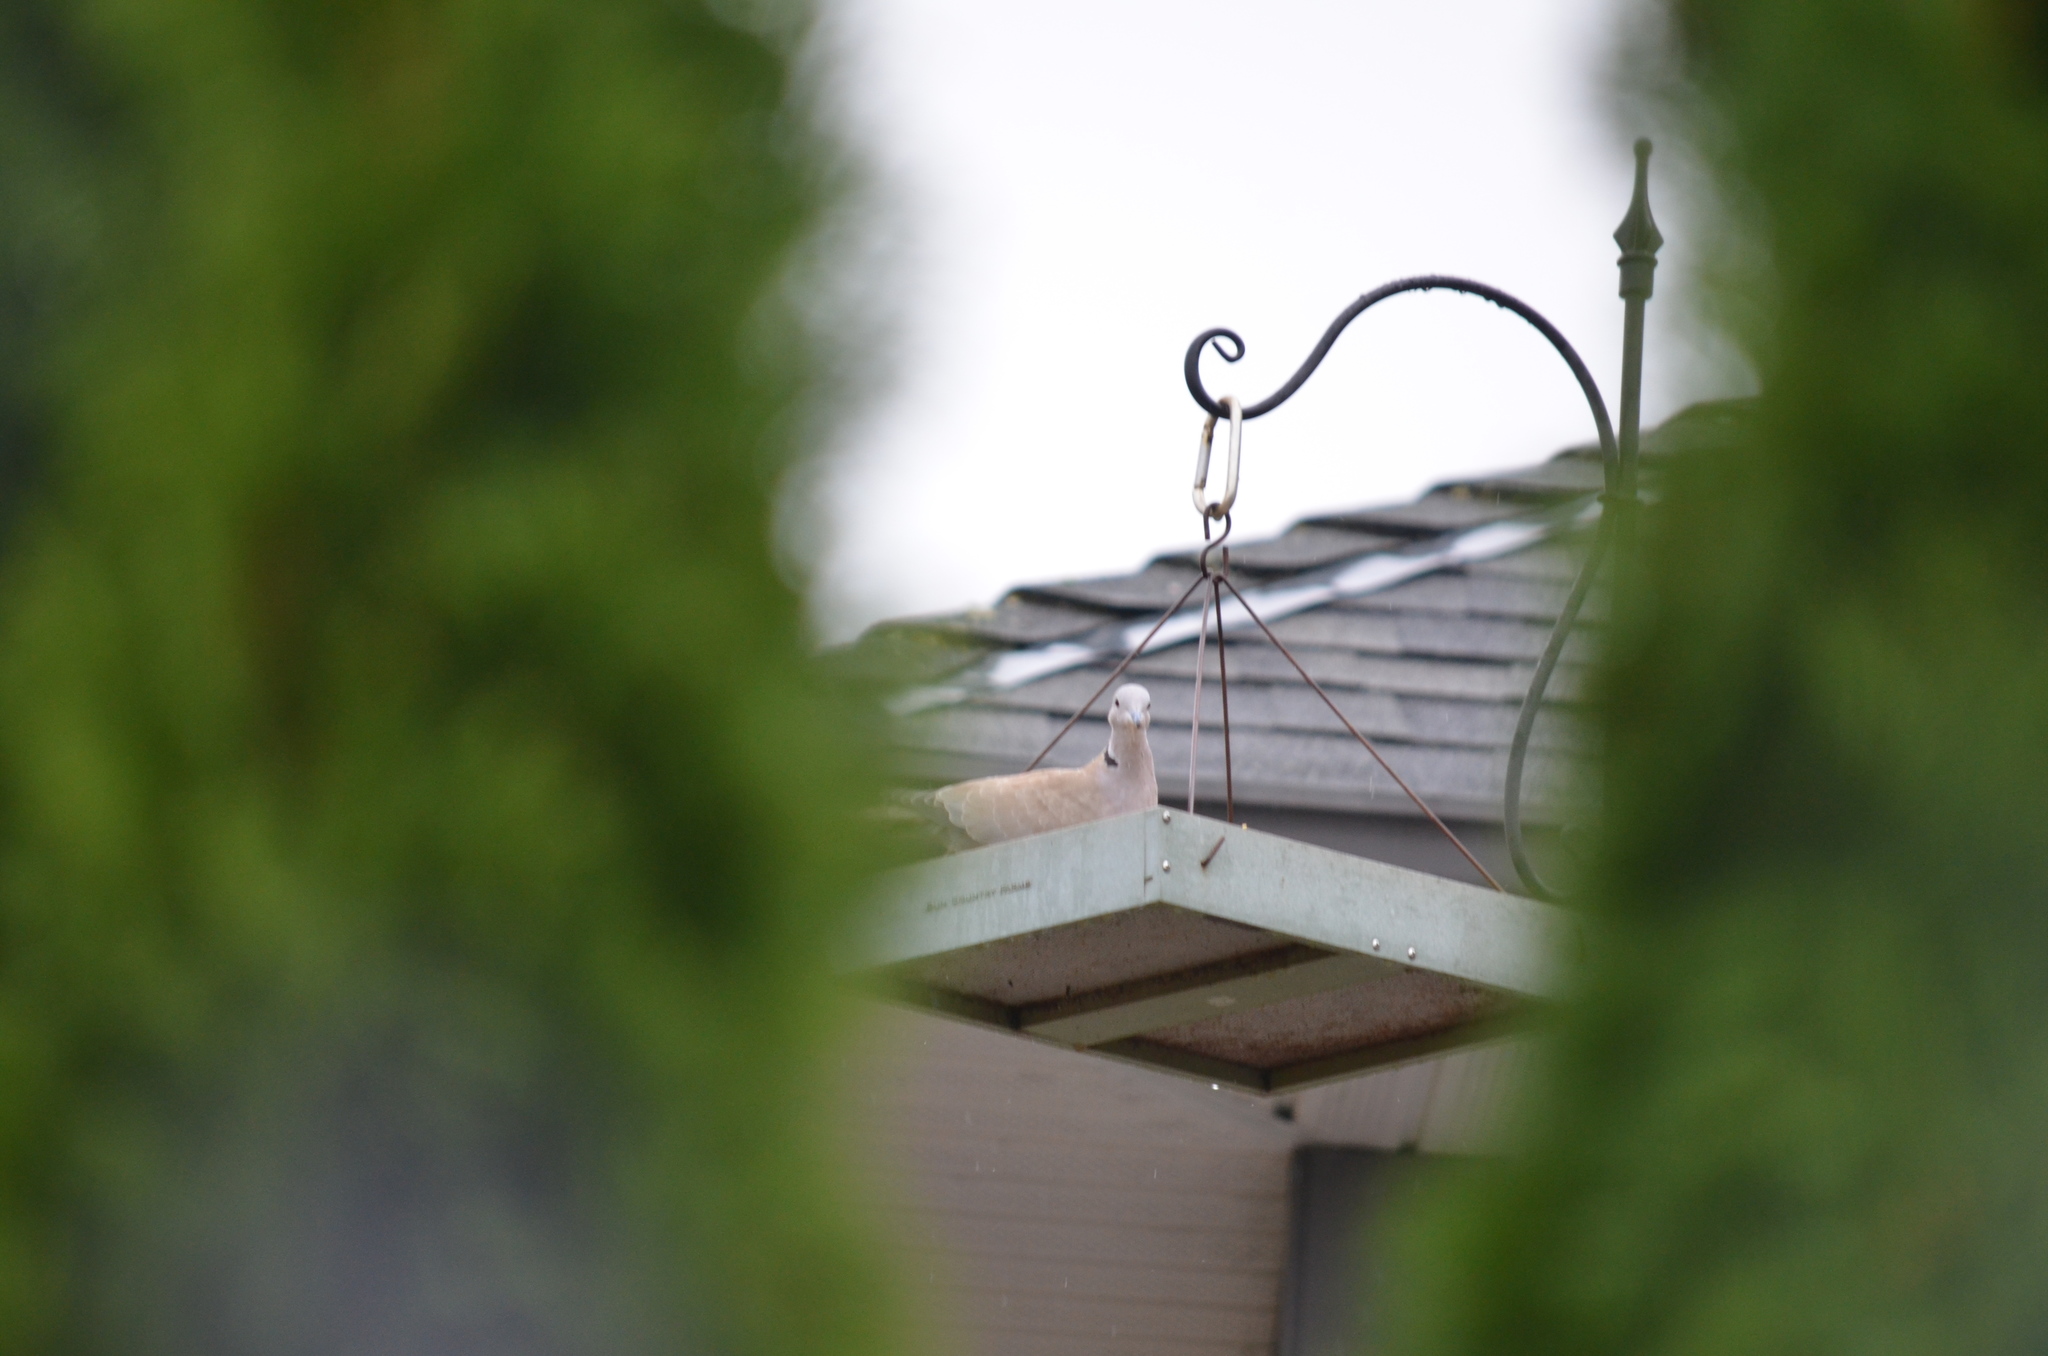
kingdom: Animalia
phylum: Chordata
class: Aves
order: Columbiformes
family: Columbidae
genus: Streptopelia
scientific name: Streptopelia decaocto
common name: Eurasian collared dove
